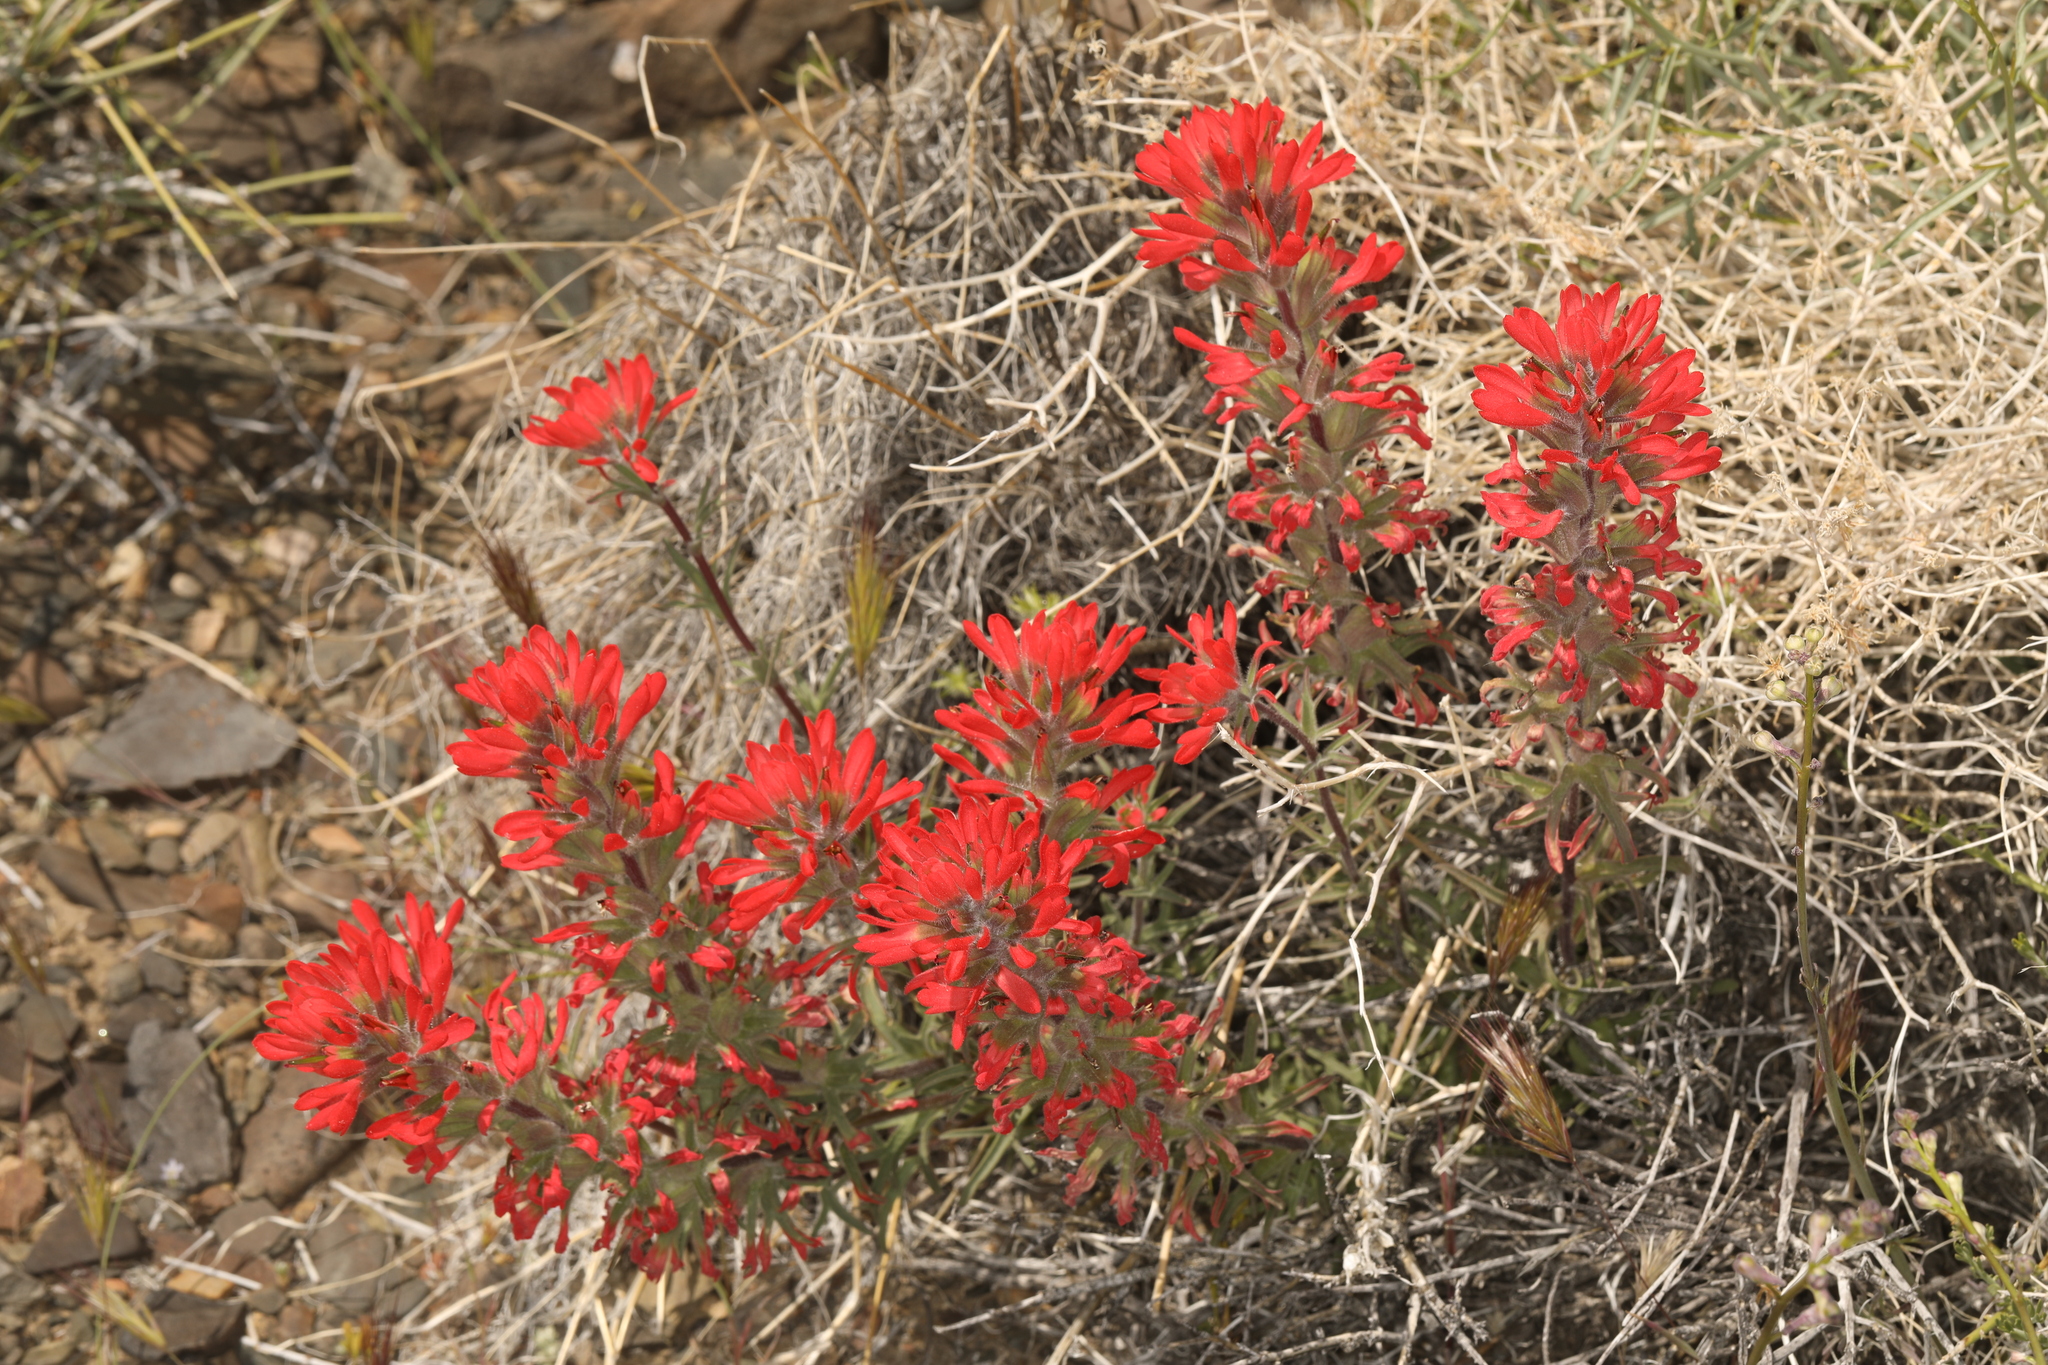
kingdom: Plantae
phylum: Tracheophyta
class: Magnoliopsida
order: Lamiales
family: Orobanchaceae
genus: Castilleja
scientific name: Castilleja chromosa
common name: Desert paintbrush
